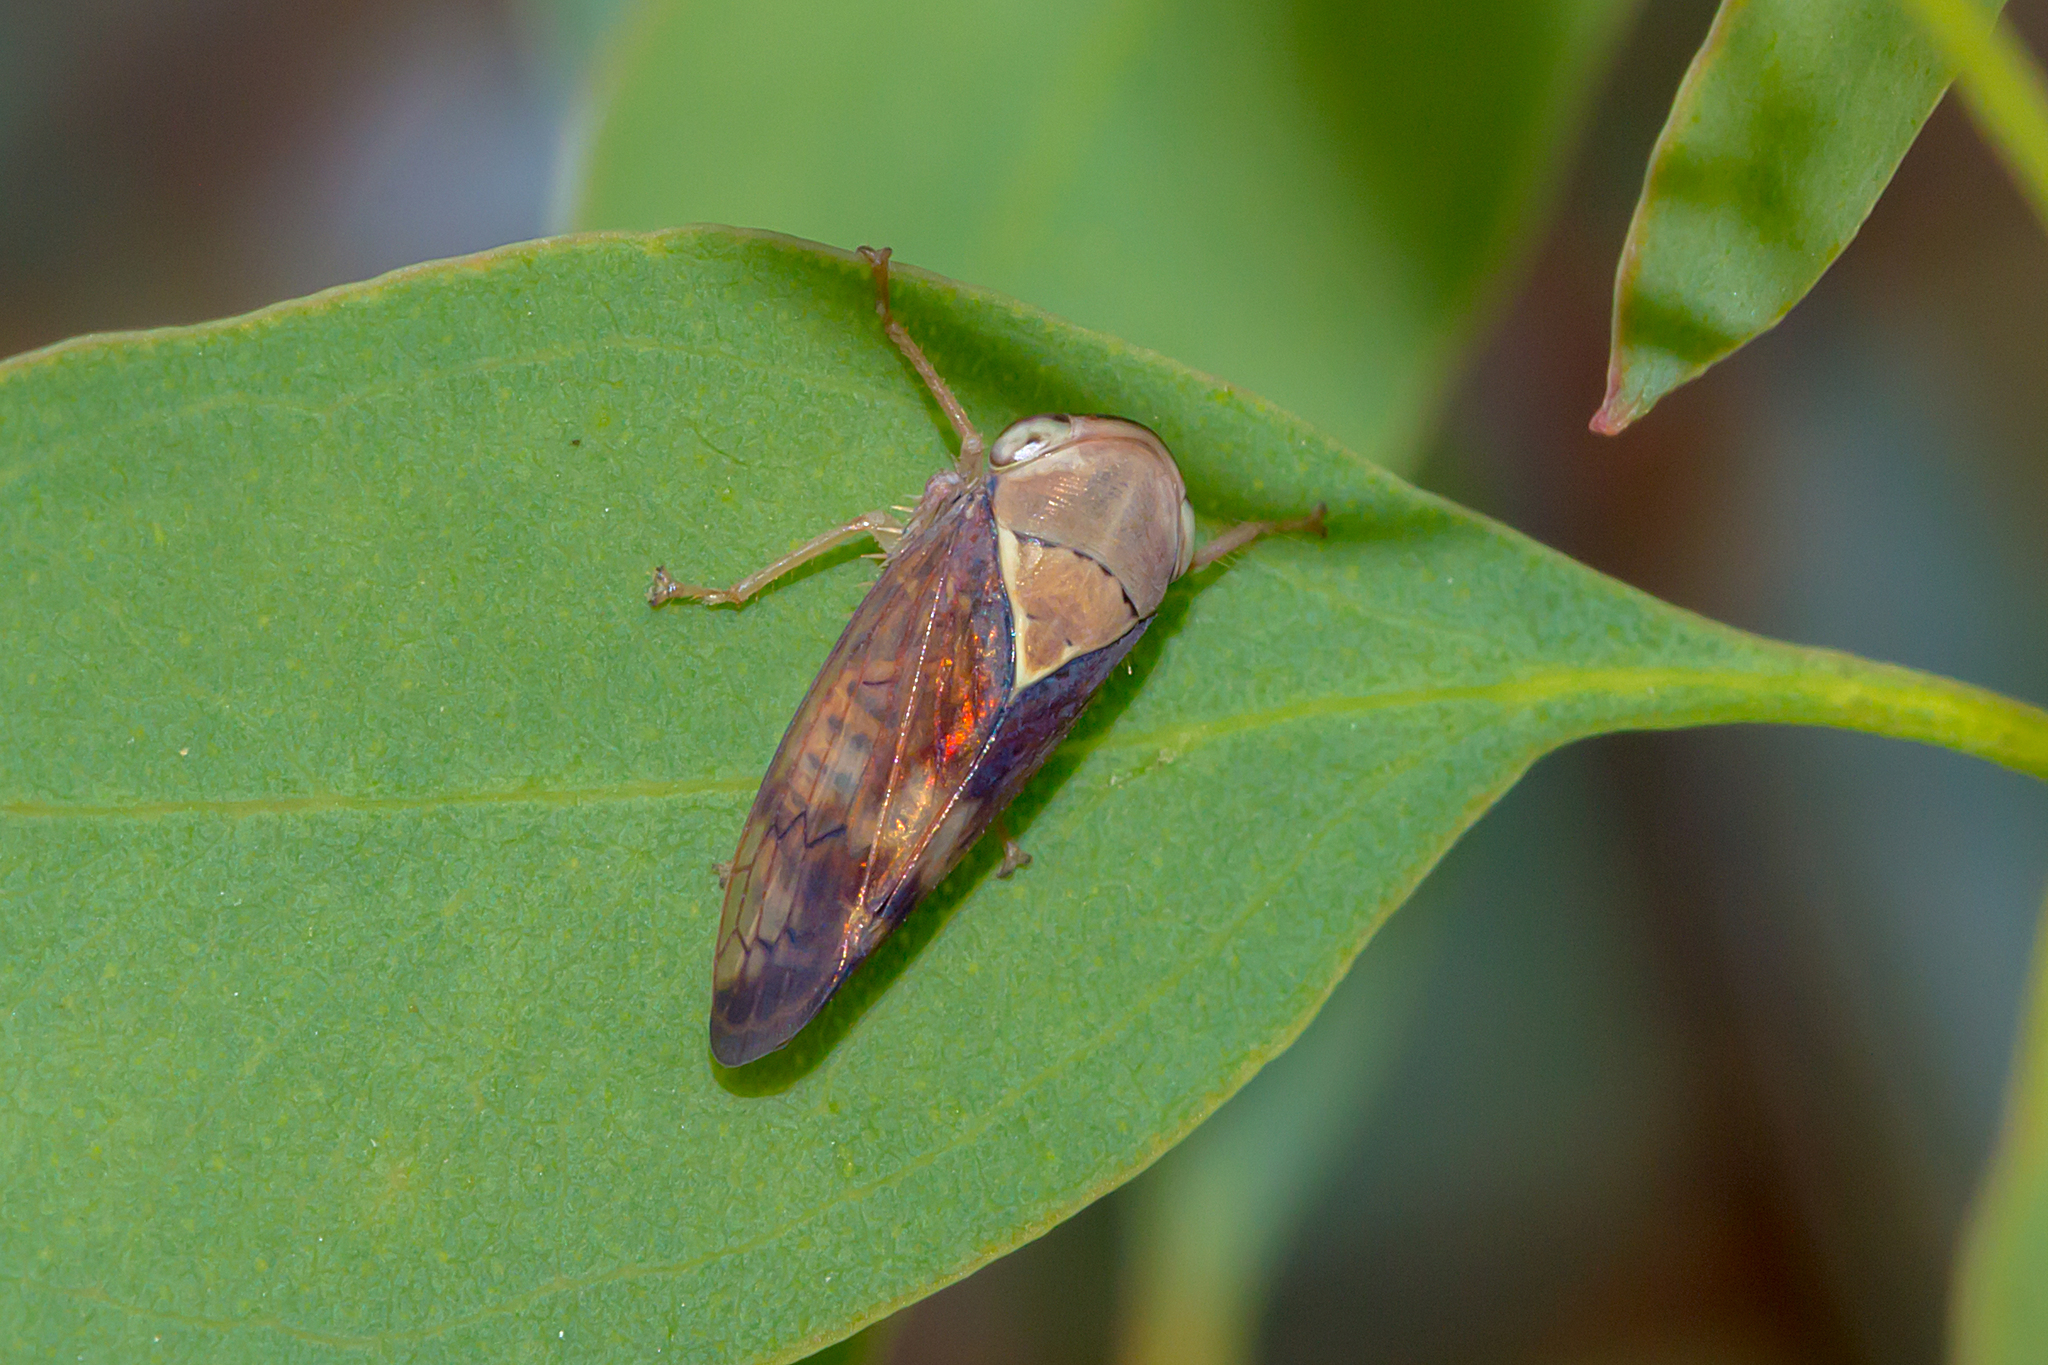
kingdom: Animalia
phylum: Arthropoda
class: Insecta
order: Hemiptera
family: Cicadellidae
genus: Brunotartessus
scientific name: Brunotartessus fulvus
